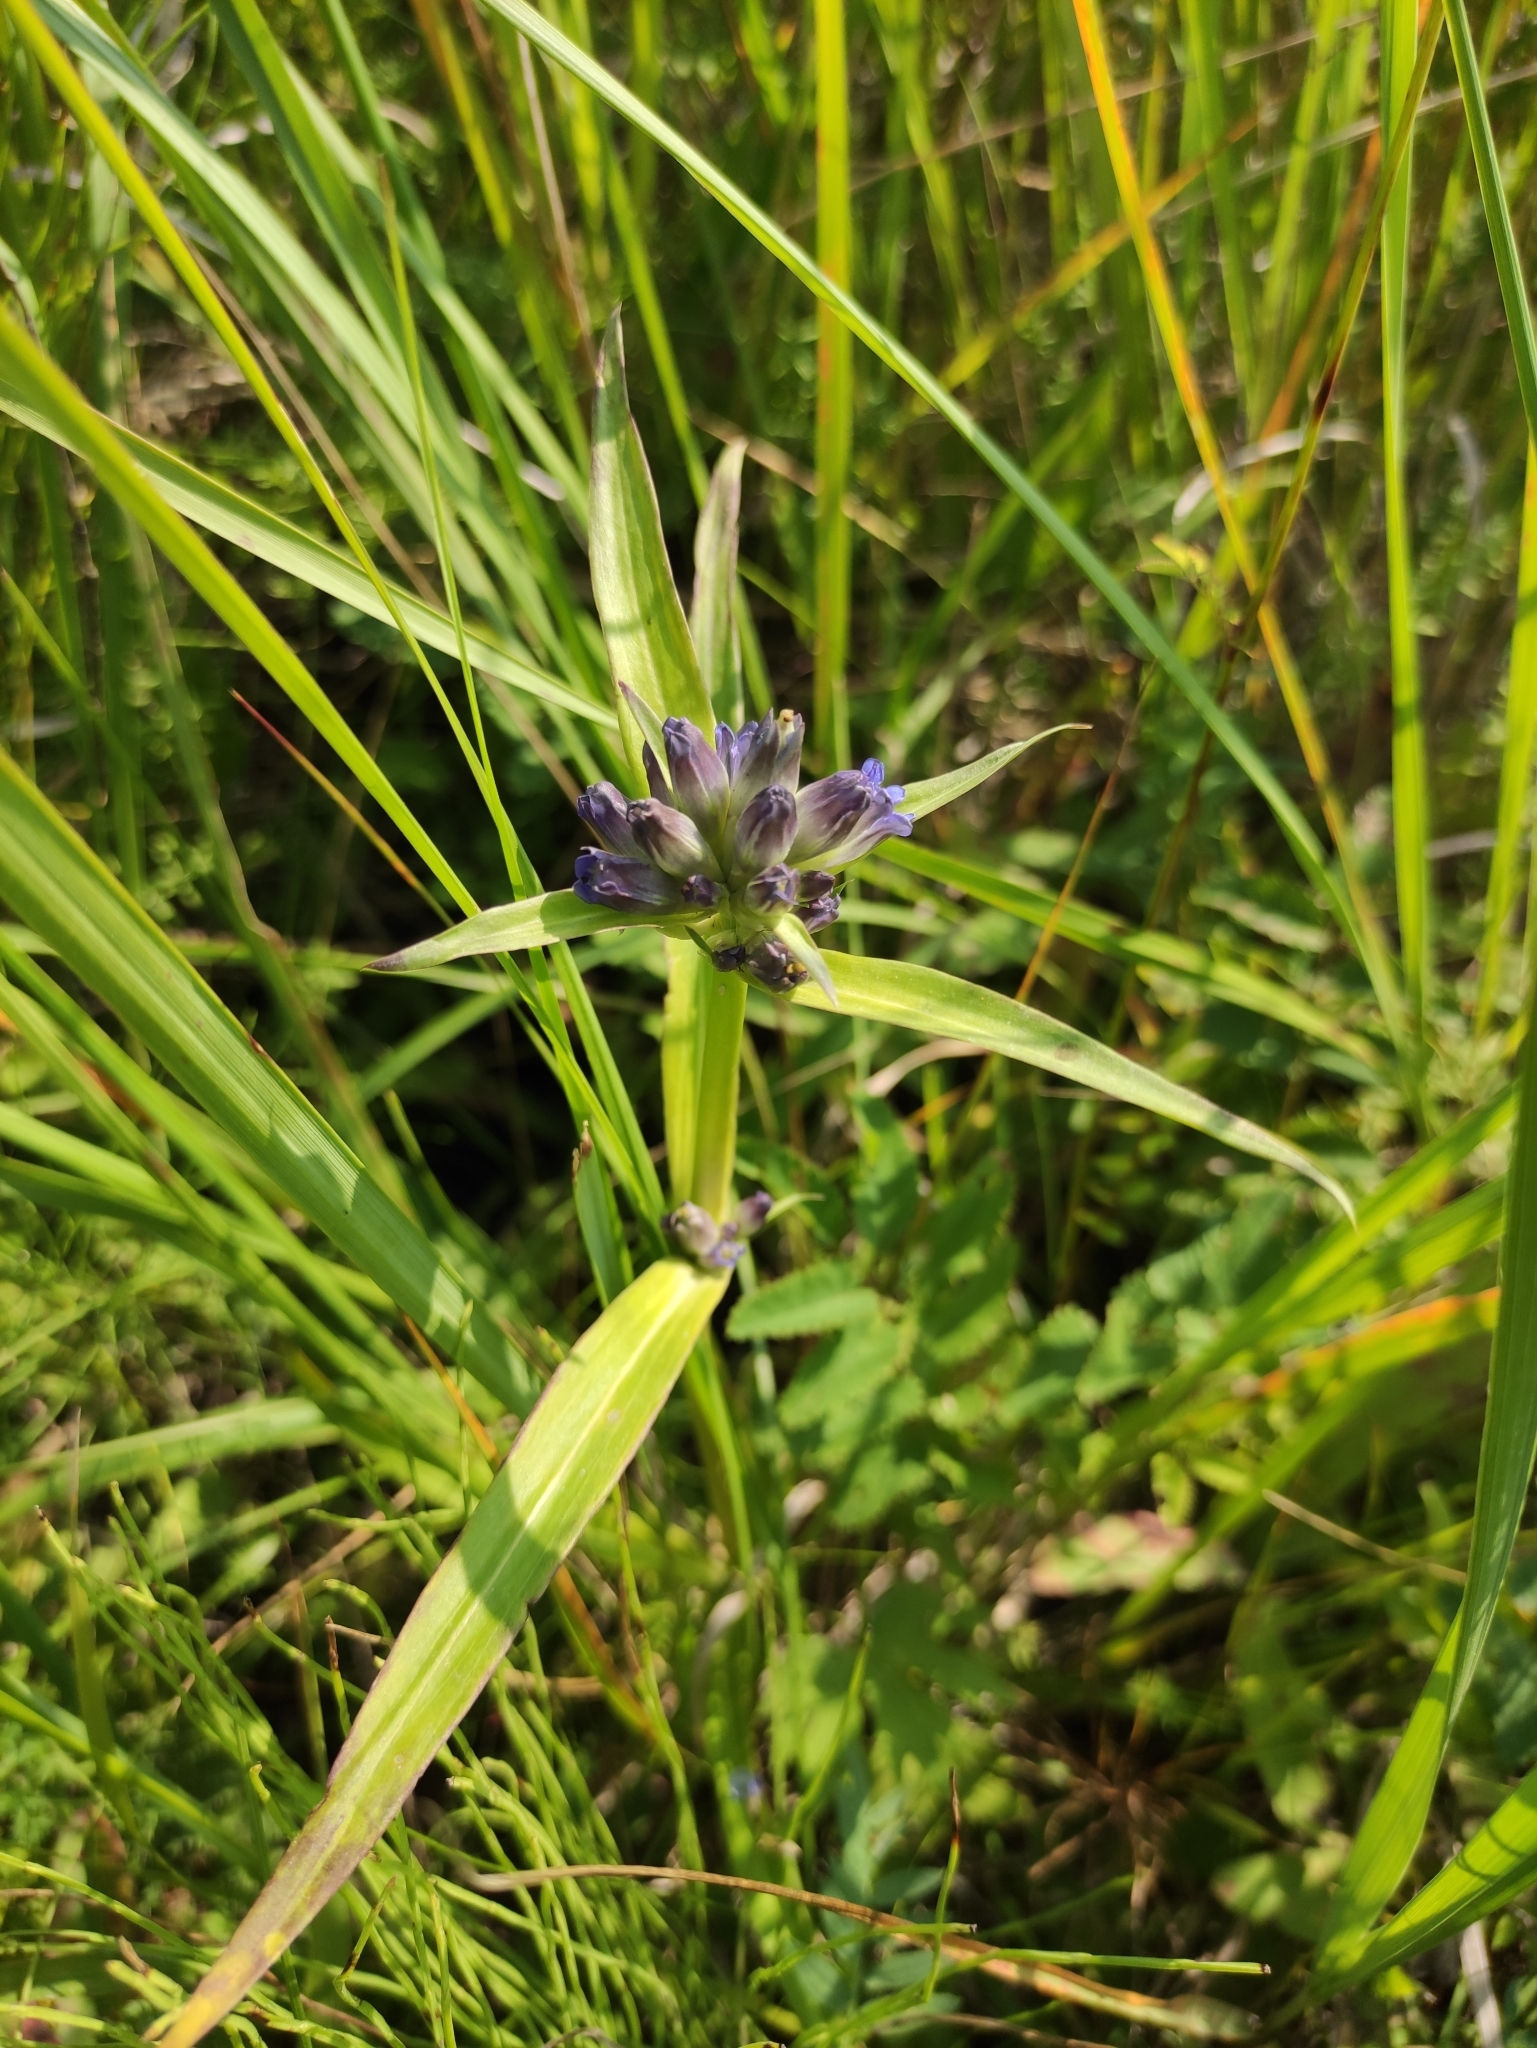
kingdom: Plantae
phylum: Tracheophyta
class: Magnoliopsida
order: Gentianales
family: Gentianaceae
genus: Gentiana
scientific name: Gentiana macrophylla
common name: Large-leaf gentian
